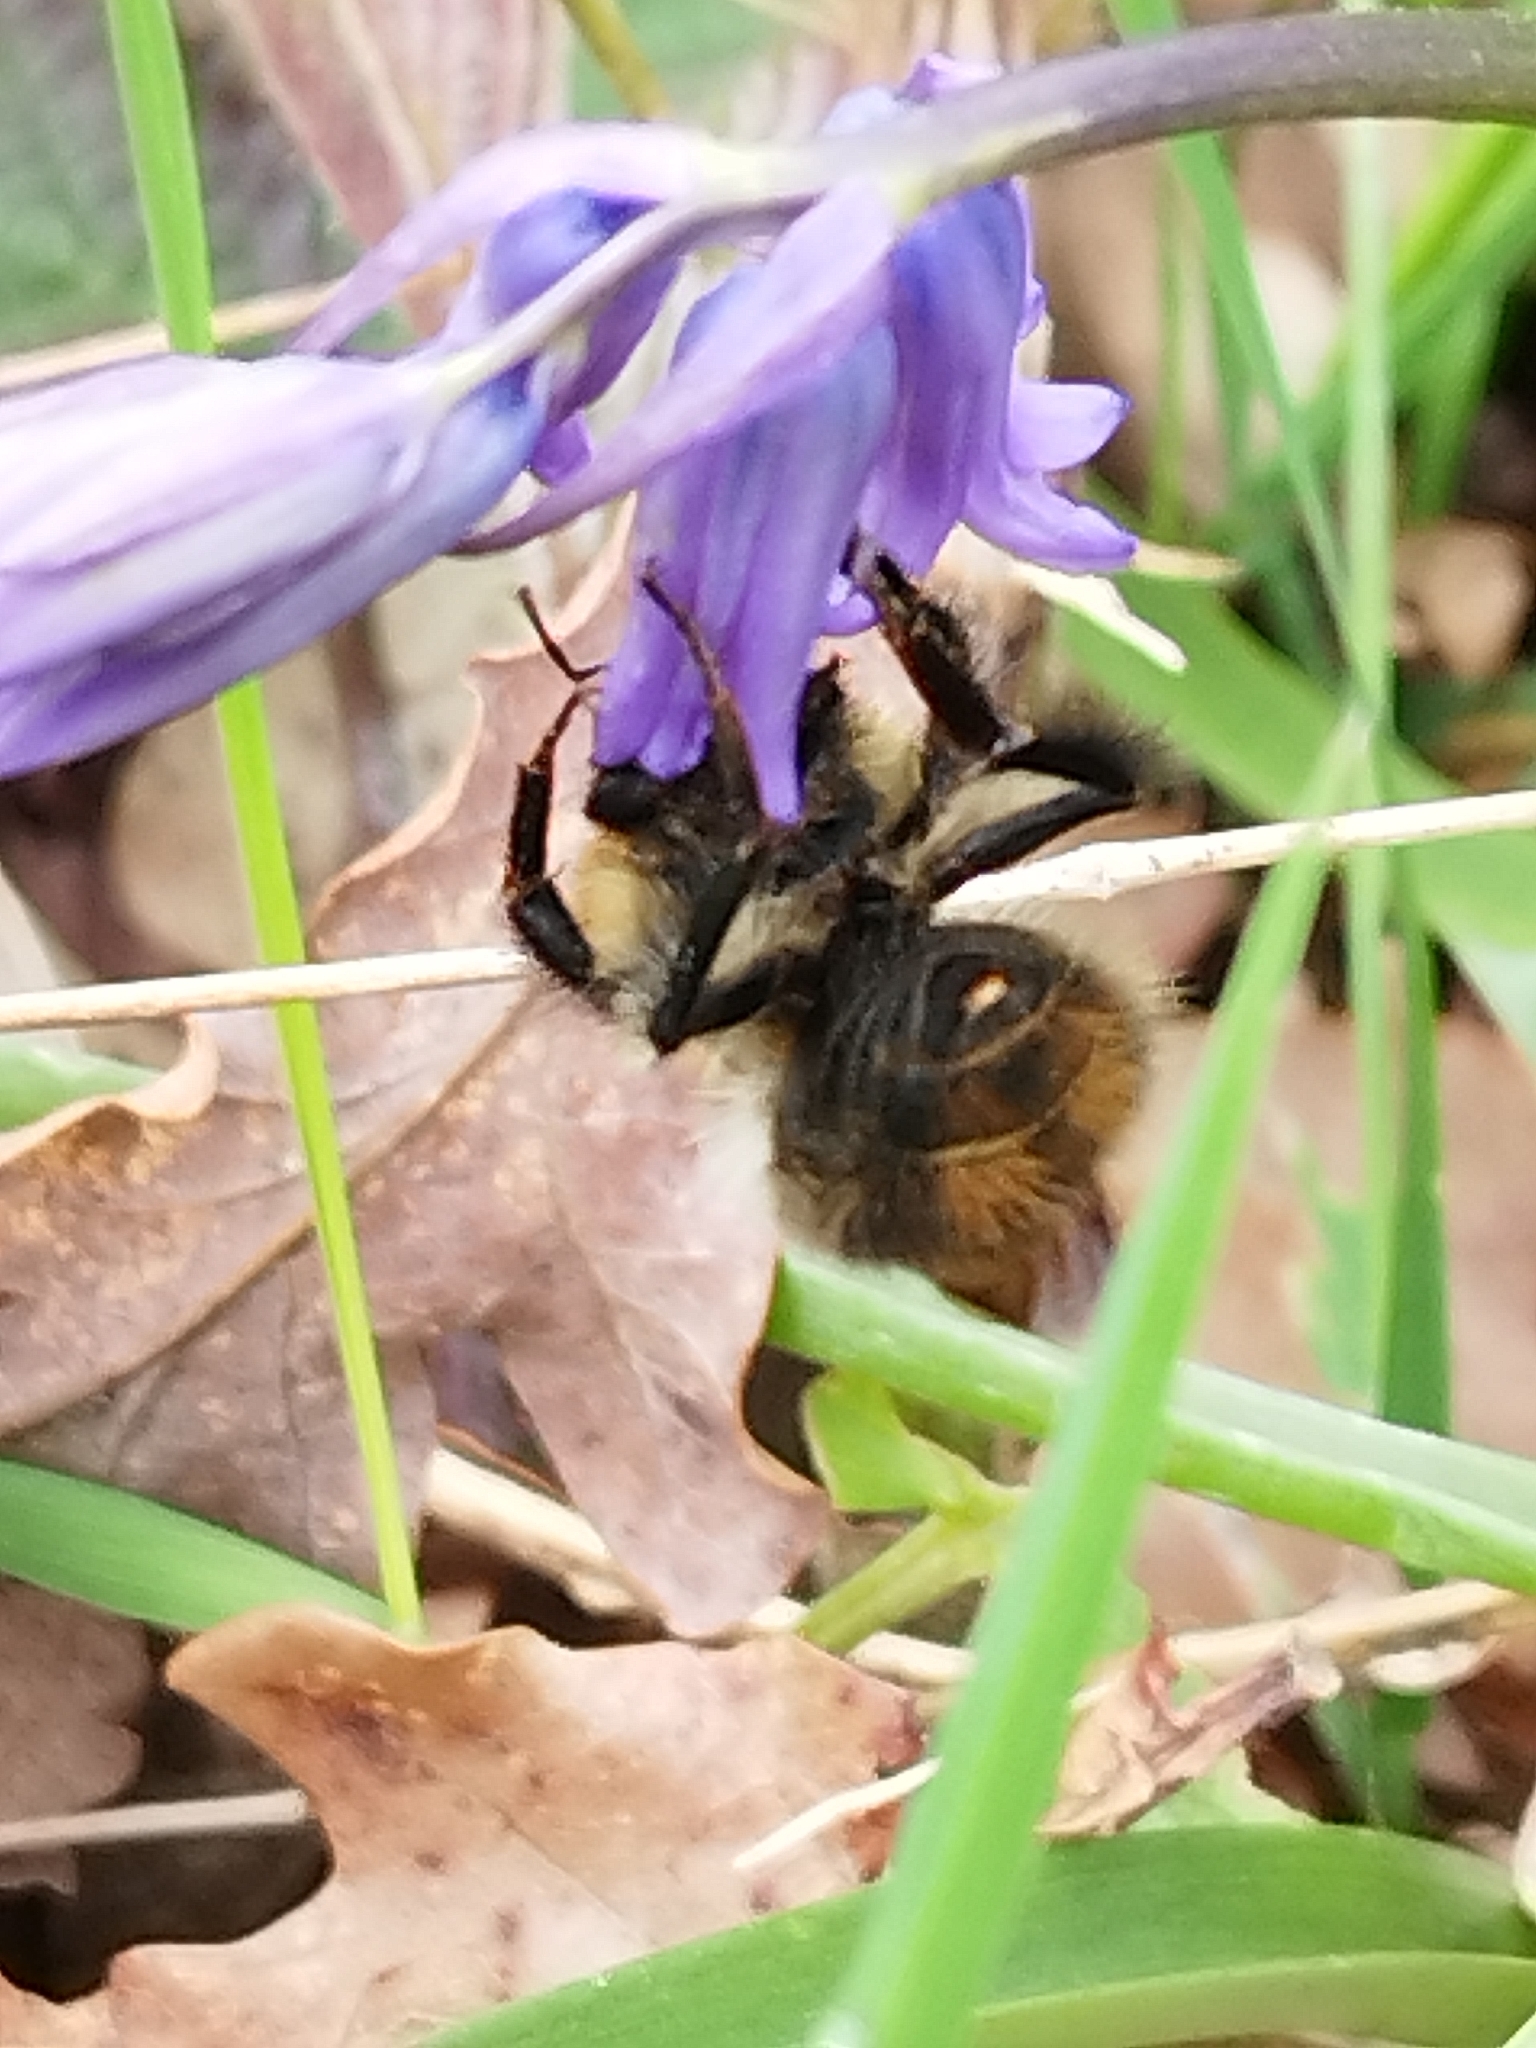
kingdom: Animalia
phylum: Arthropoda
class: Insecta
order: Hymenoptera
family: Apidae
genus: Bombus
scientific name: Bombus pascuorum
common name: Common carder bee
